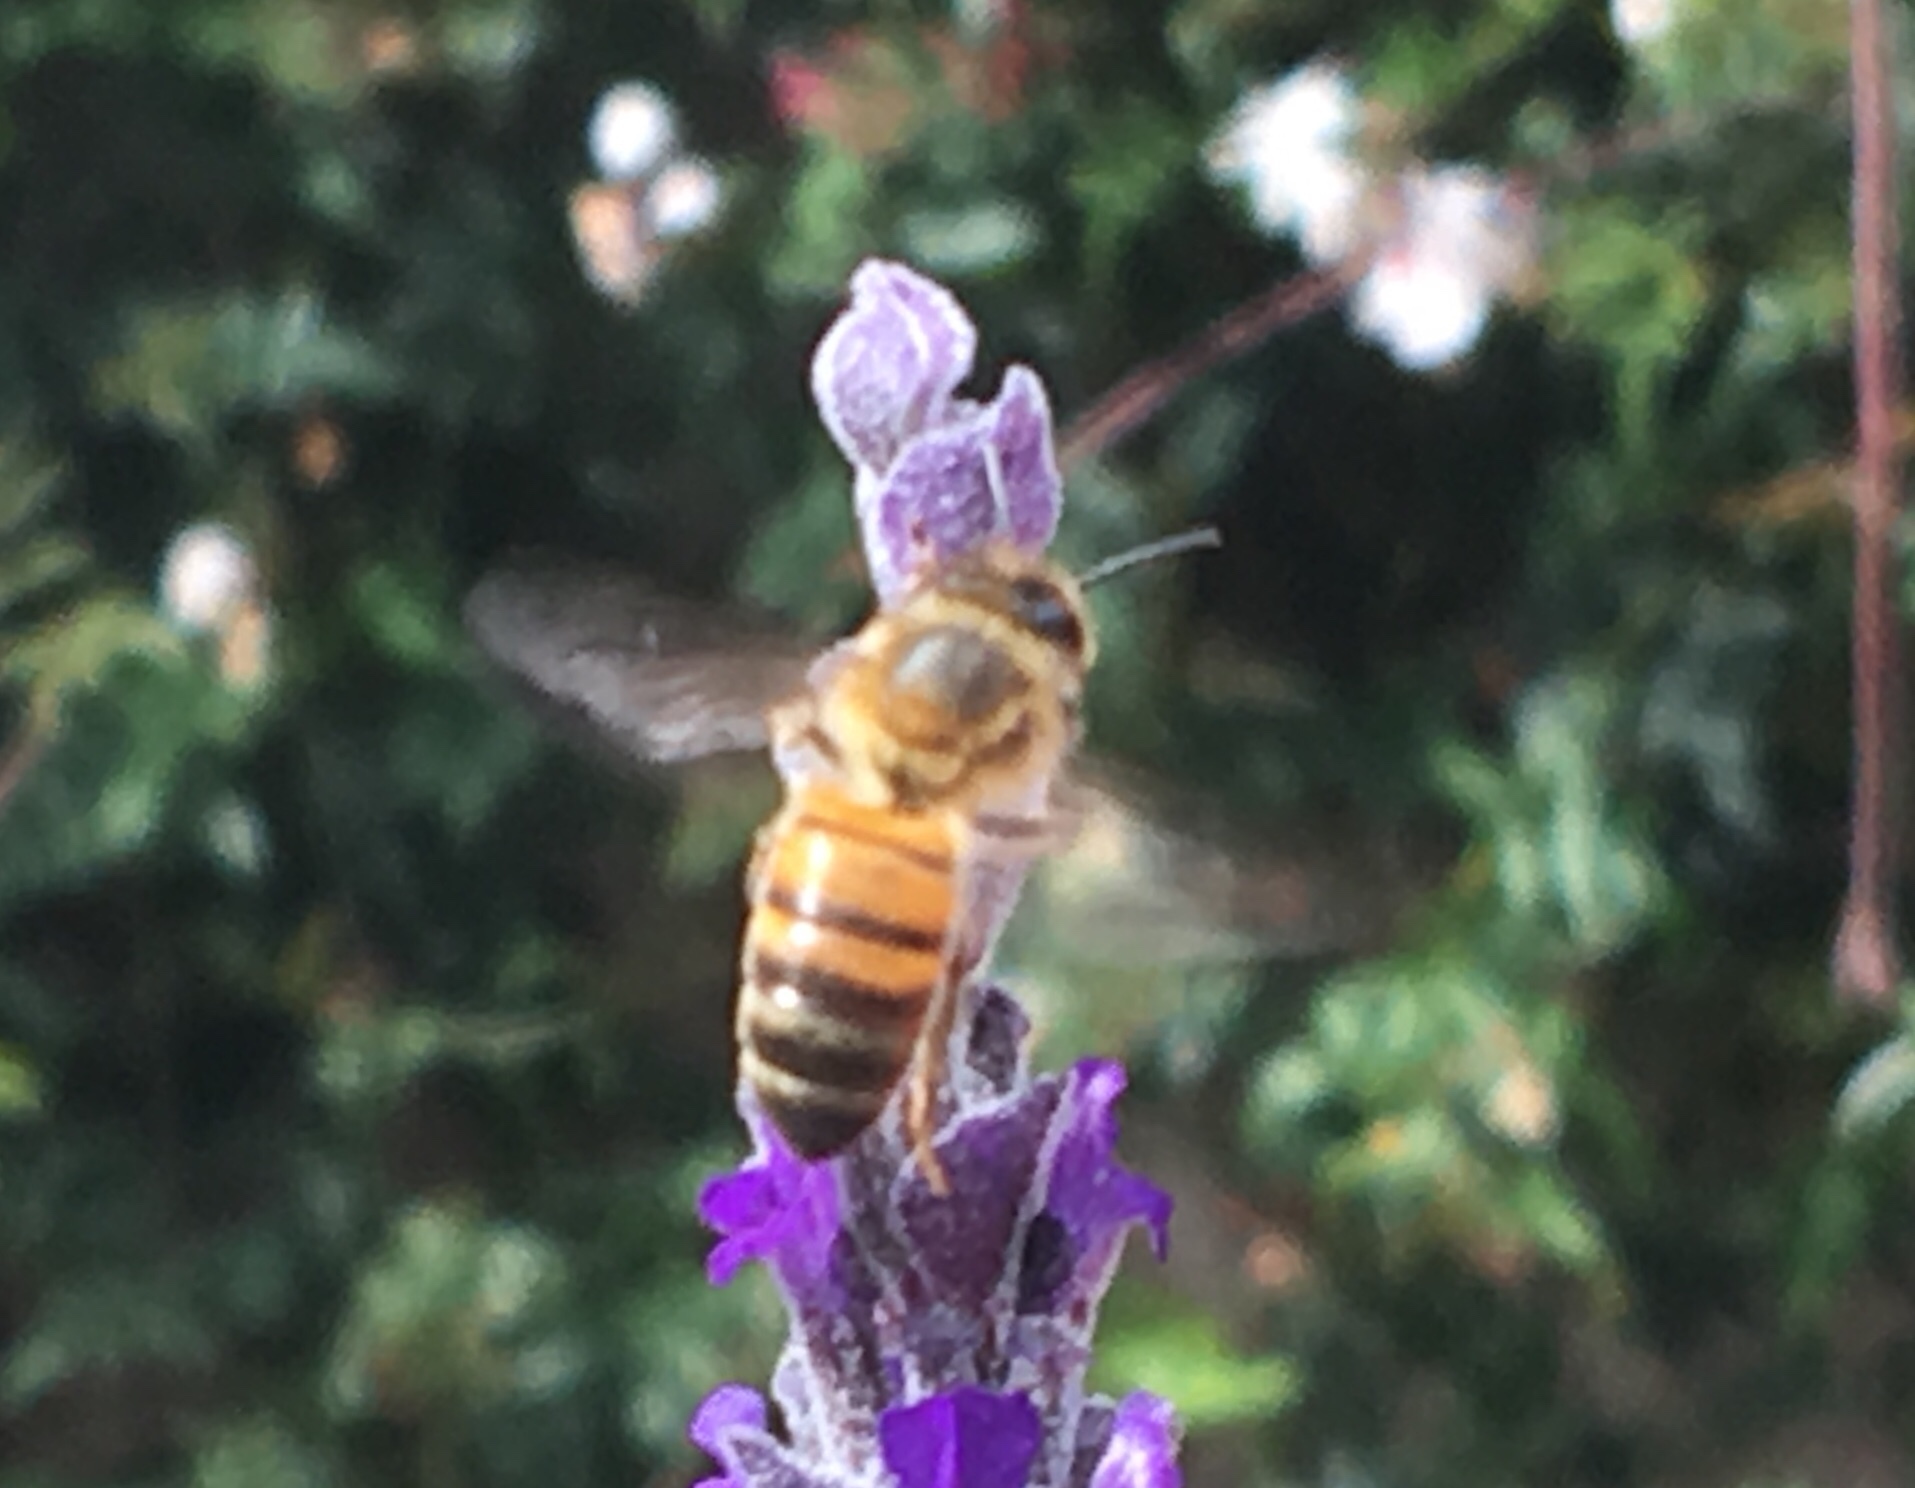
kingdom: Animalia
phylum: Arthropoda
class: Insecta
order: Hymenoptera
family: Apidae
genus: Apis
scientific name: Apis mellifera
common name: Honey bee
